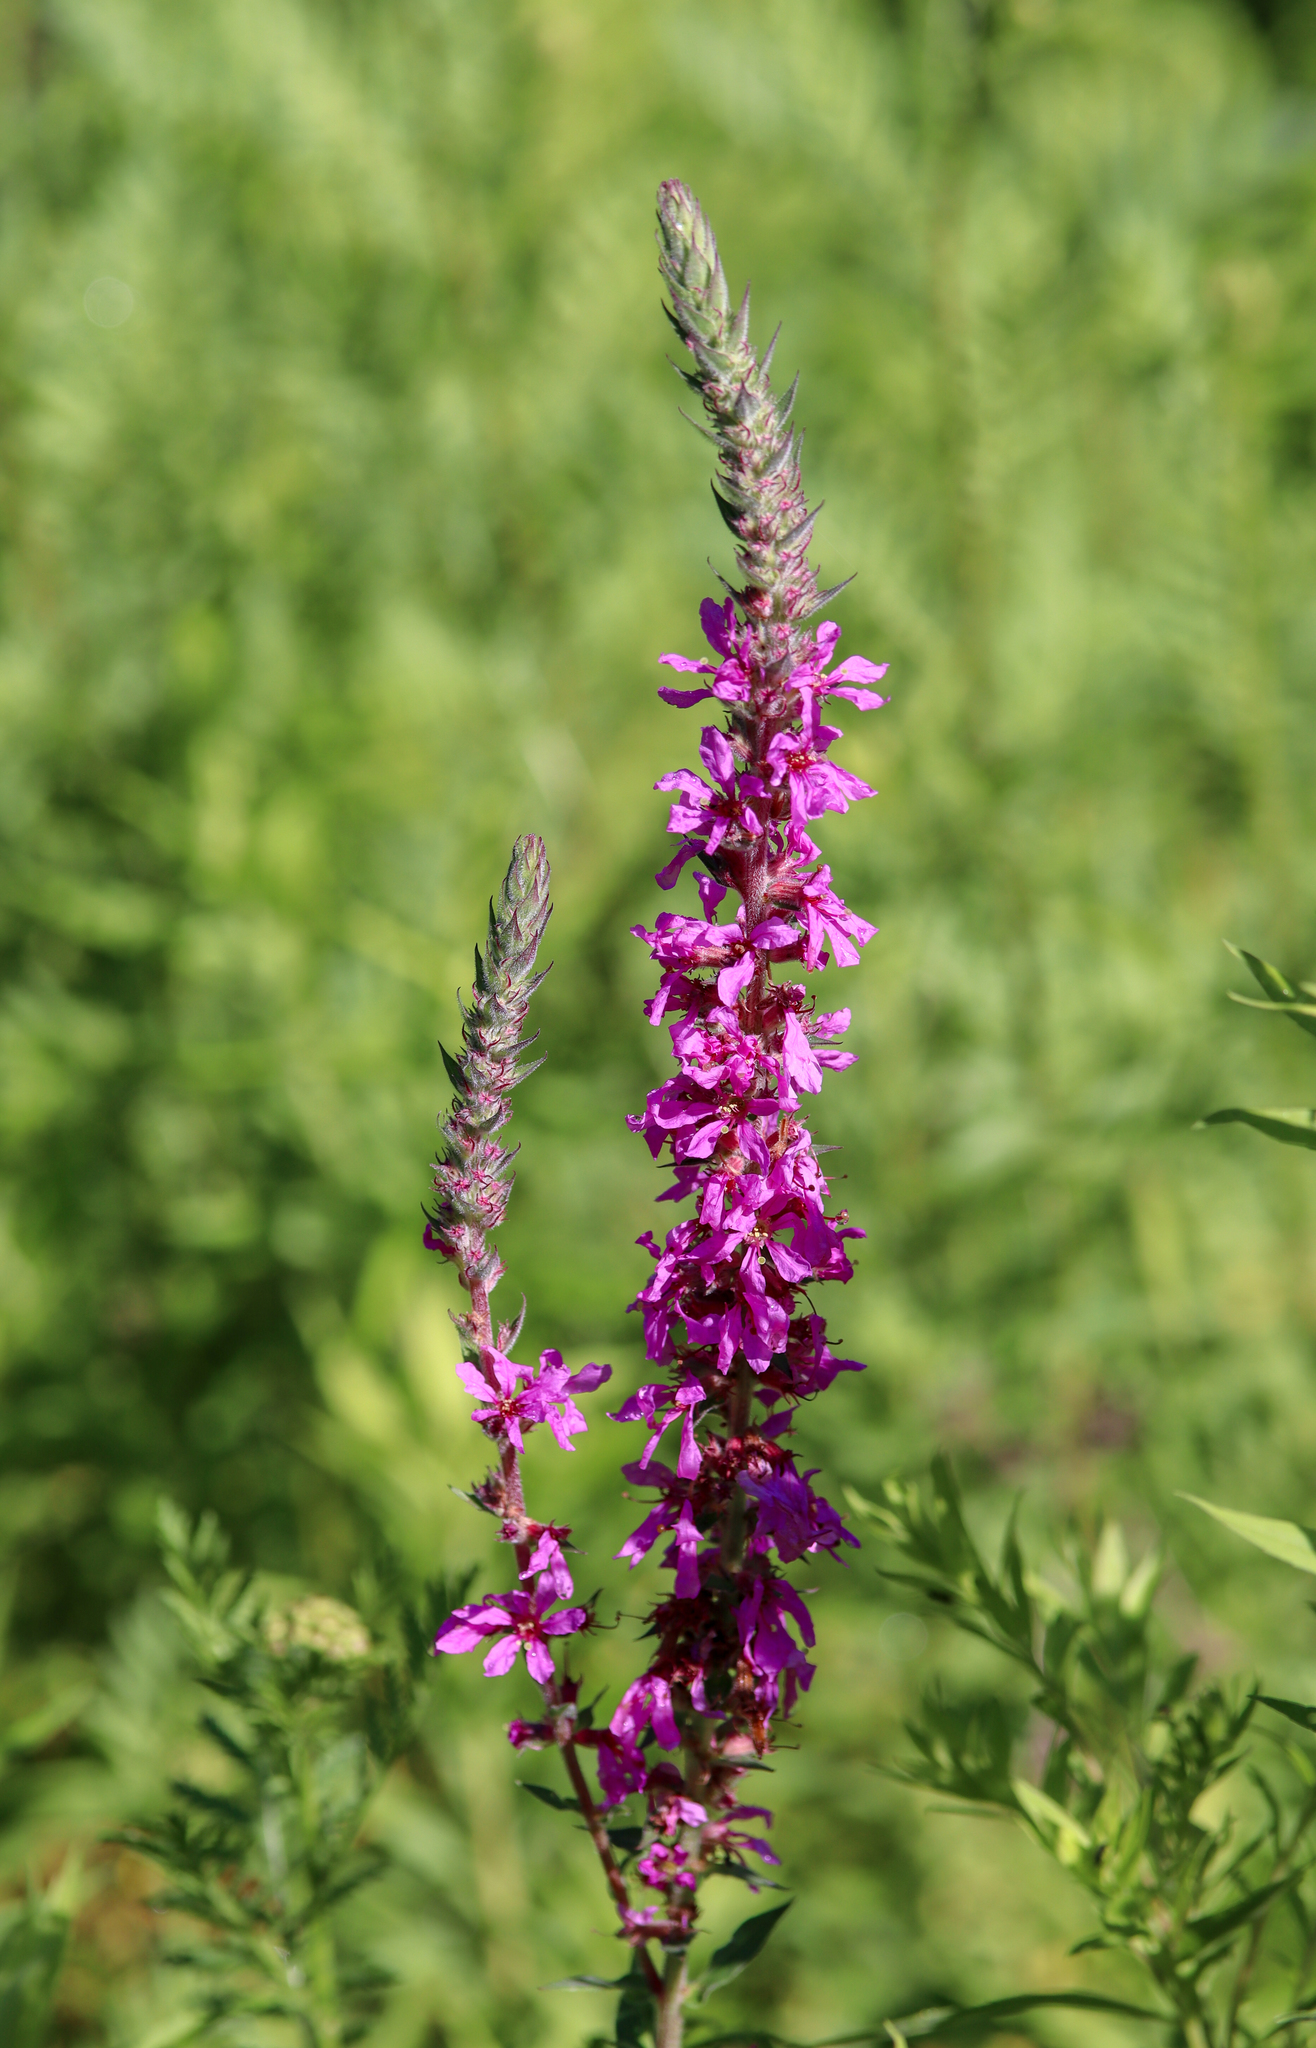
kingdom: Plantae
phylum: Tracheophyta
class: Magnoliopsida
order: Myrtales
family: Lythraceae
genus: Lythrum
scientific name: Lythrum salicaria
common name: Purple loosestrife
